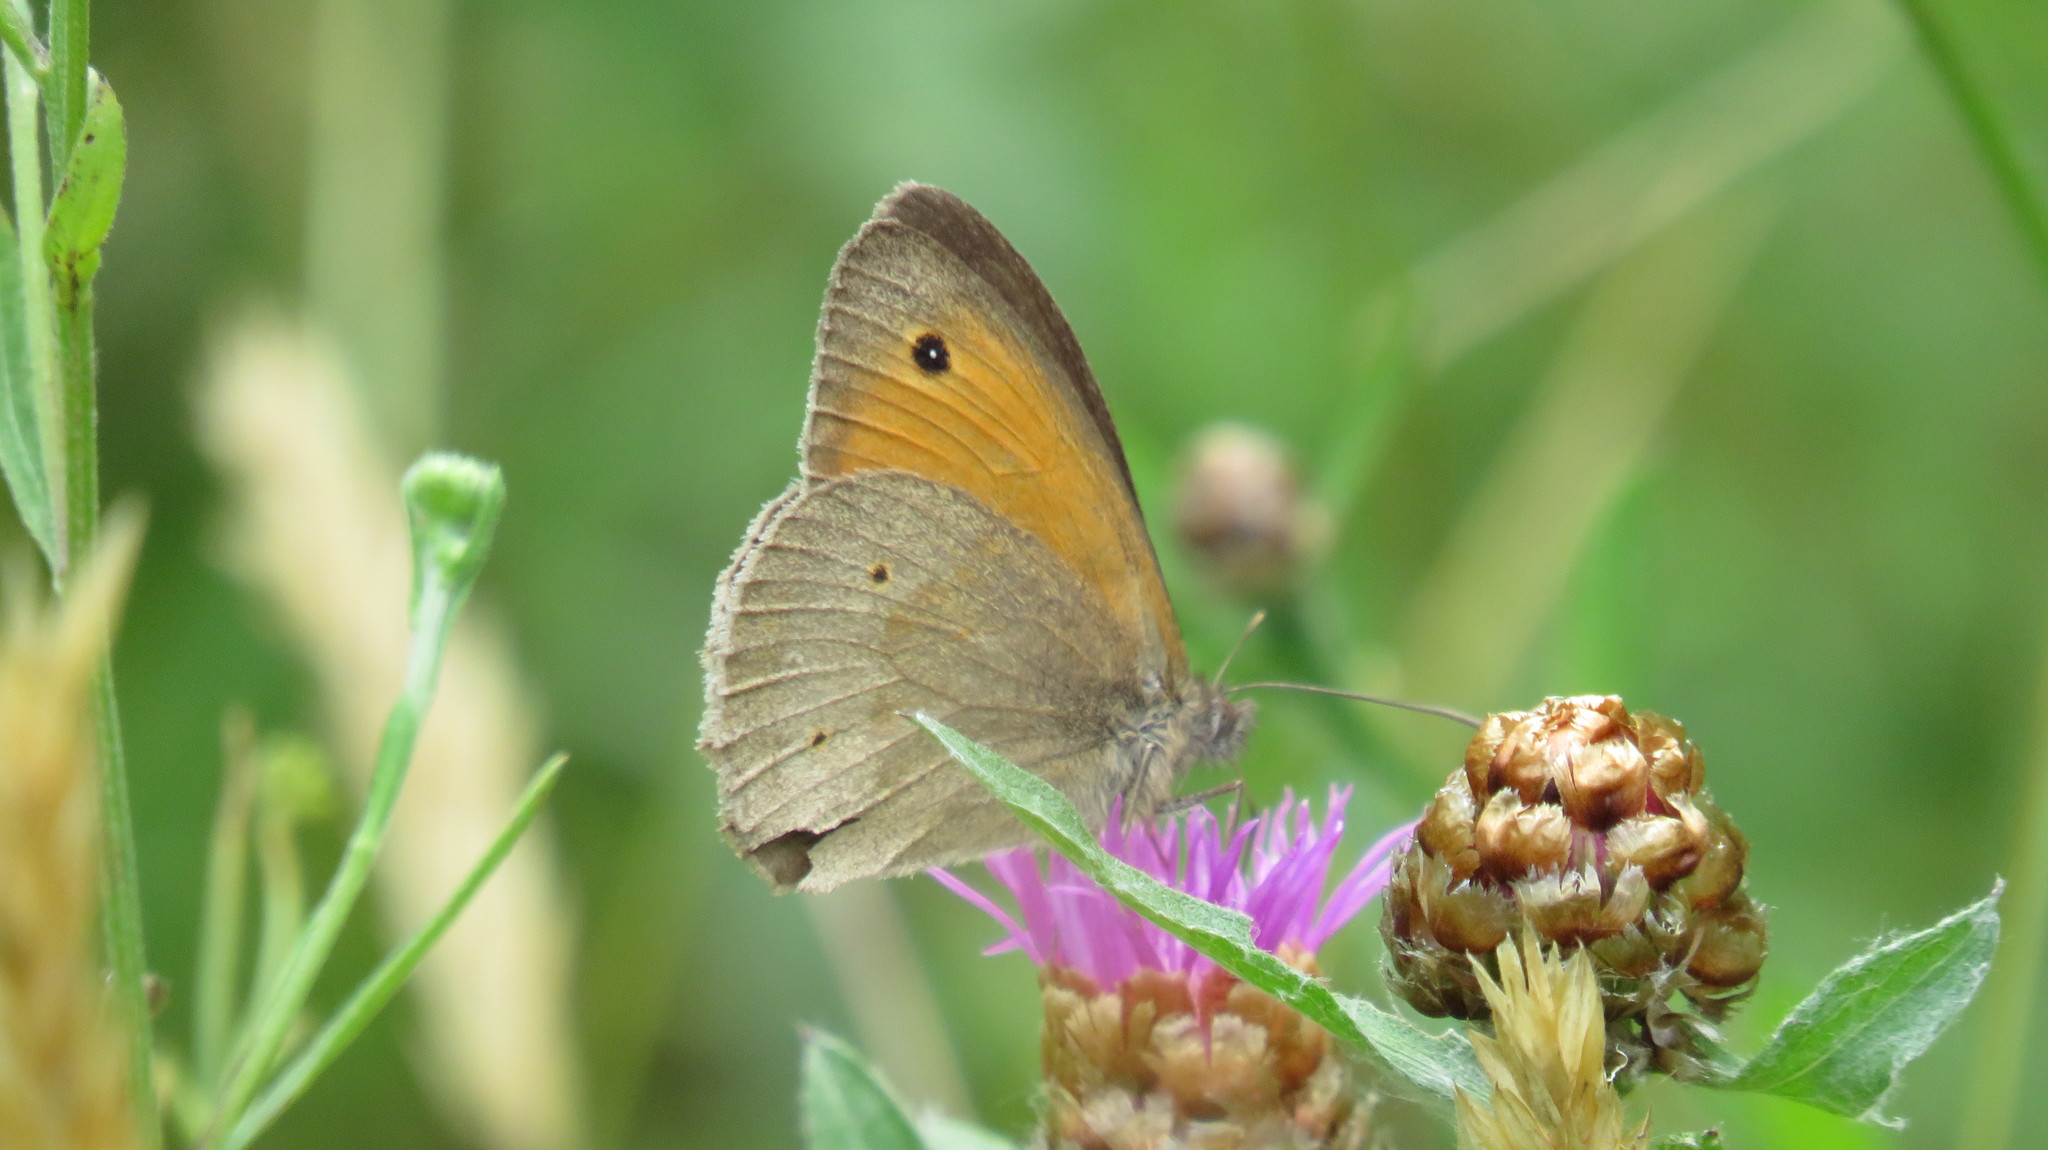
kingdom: Animalia
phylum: Arthropoda
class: Insecta
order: Lepidoptera
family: Nymphalidae
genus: Maniola
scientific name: Maniola jurtina
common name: Meadow brown
